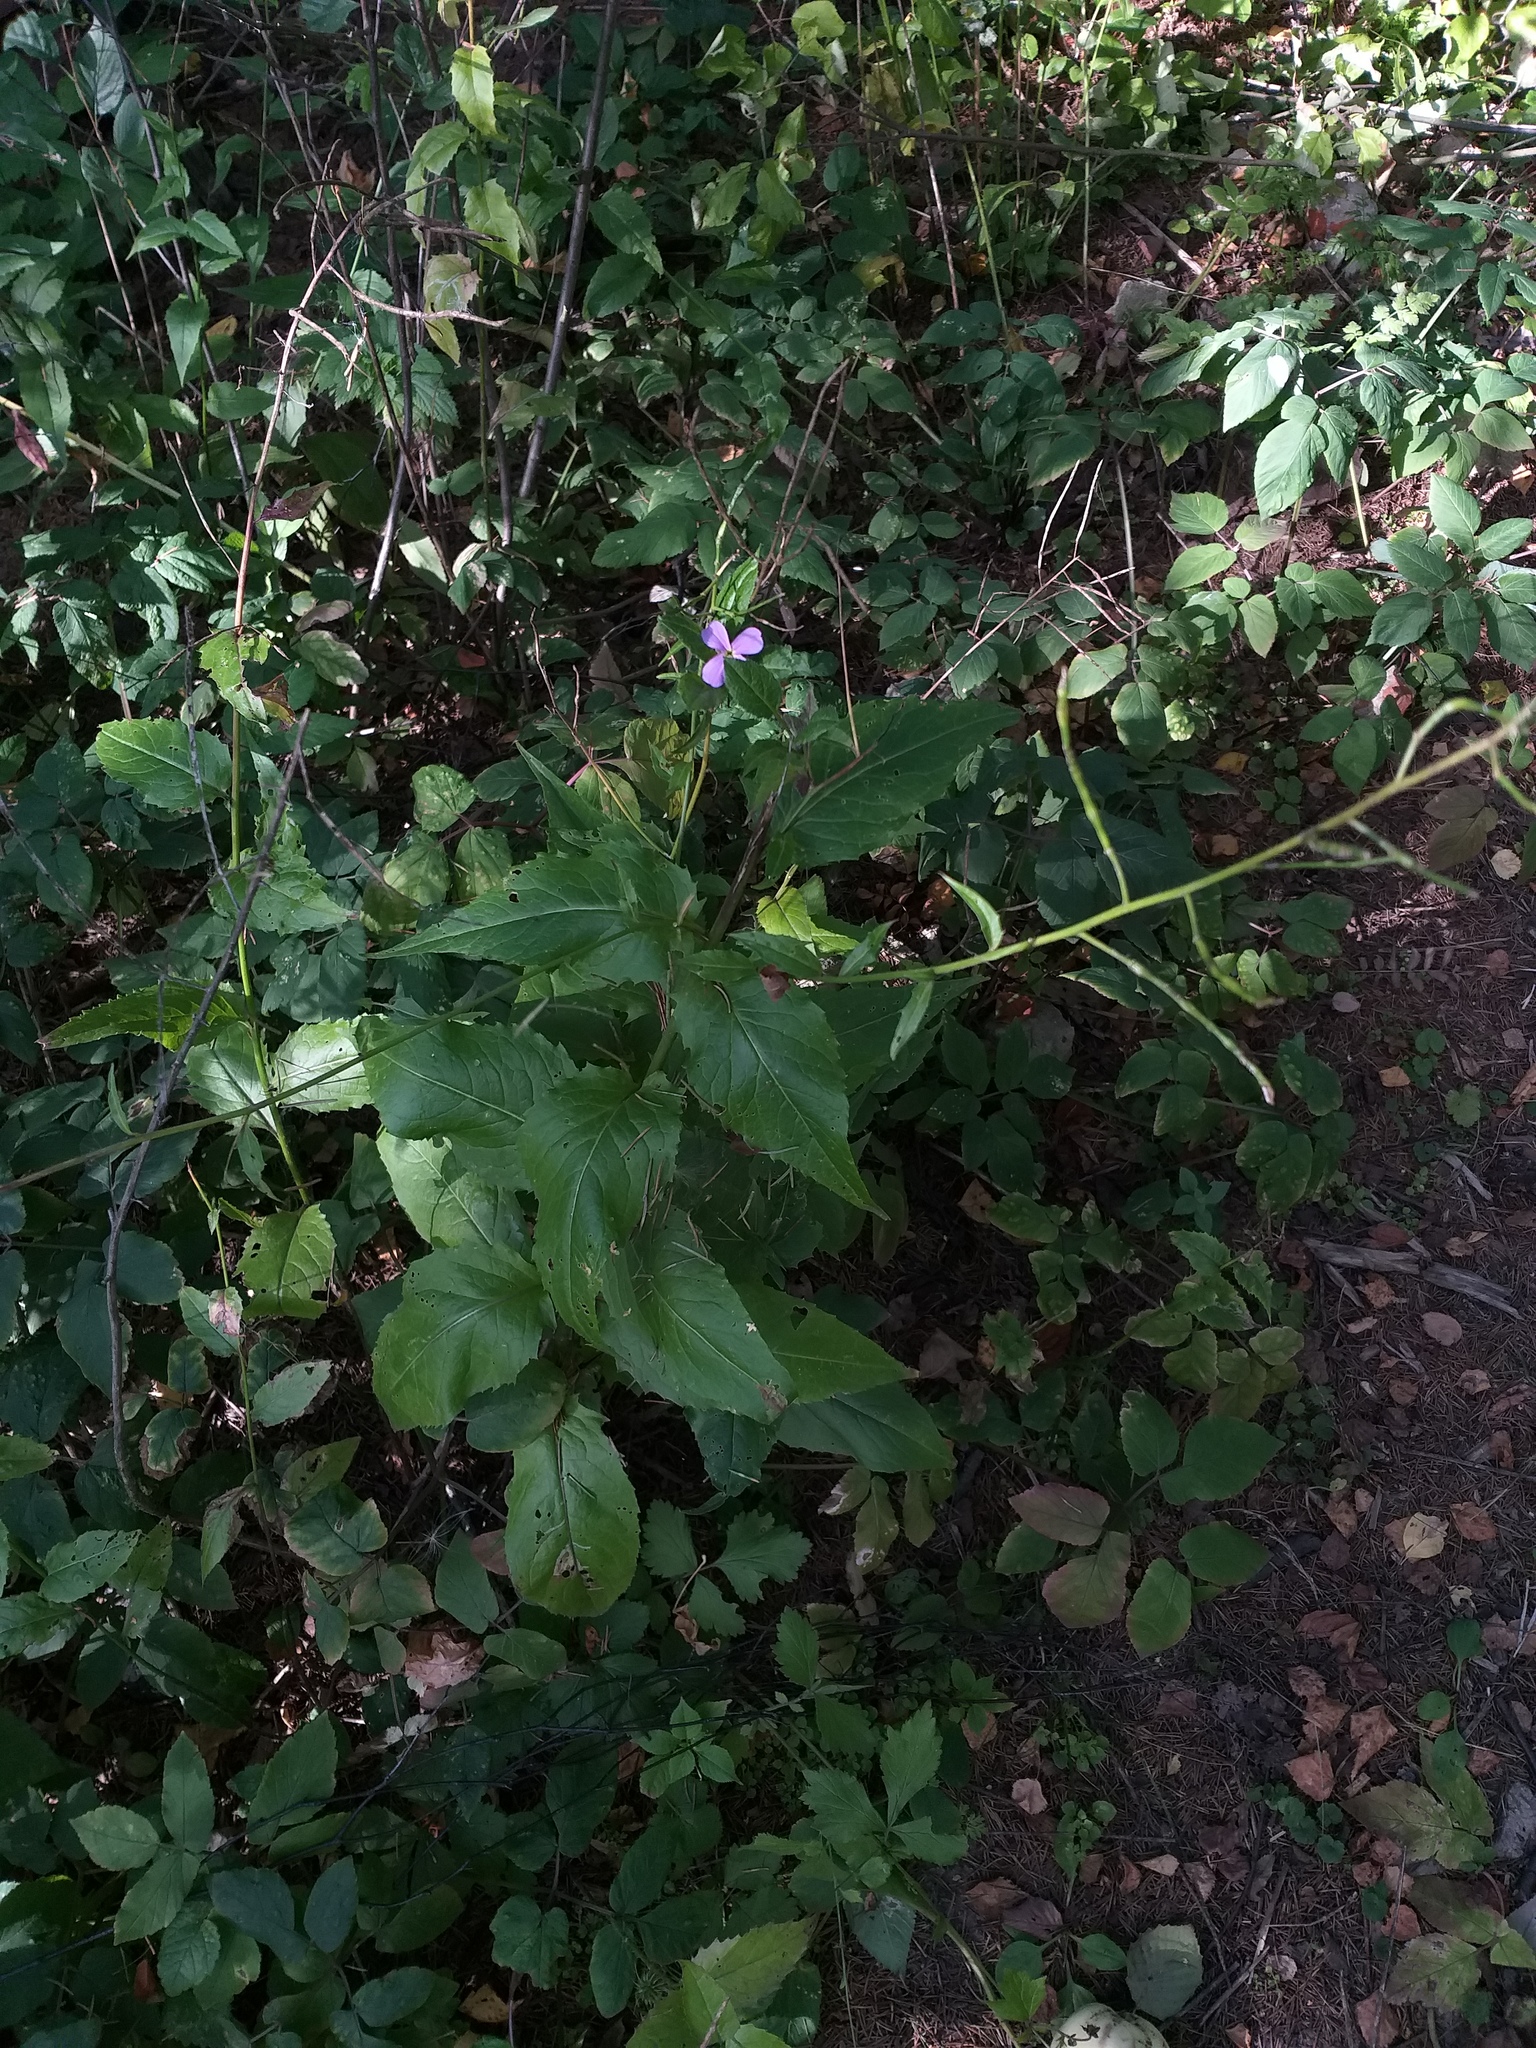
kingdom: Plantae
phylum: Tracheophyta
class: Magnoliopsida
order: Brassicales
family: Brassicaceae
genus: Hesperis
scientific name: Hesperis matronalis
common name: Dame's-violet
